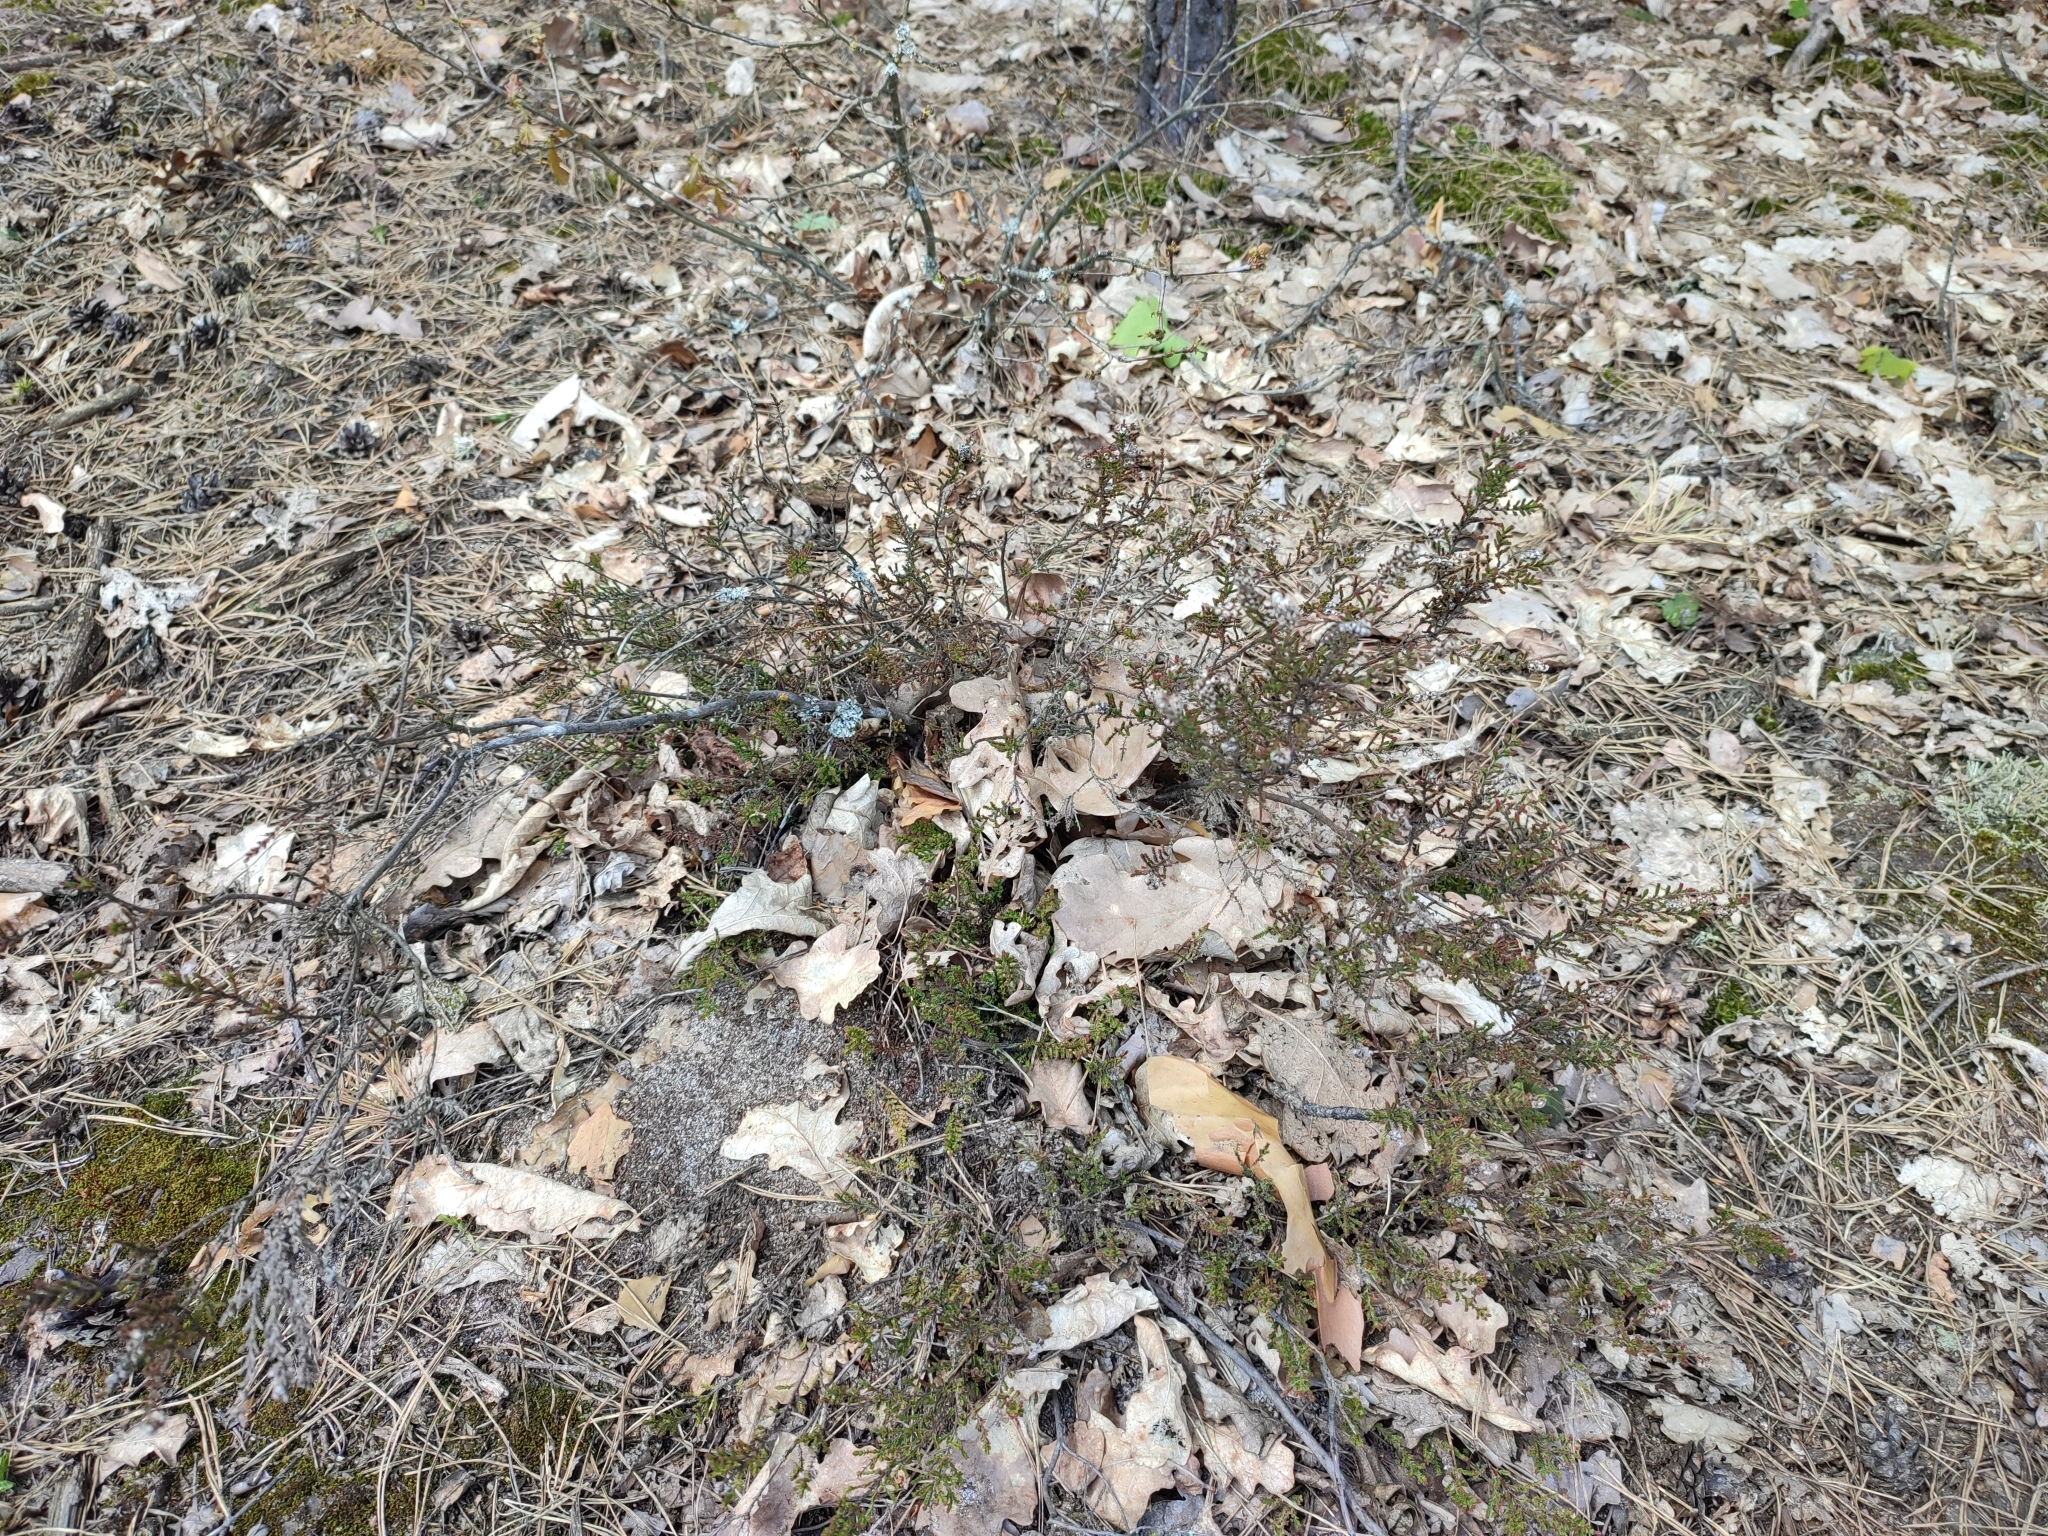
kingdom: Plantae
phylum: Tracheophyta
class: Magnoliopsida
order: Ericales
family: Ericaceae
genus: Calluna
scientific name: Calluna vulgaris
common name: Heather
